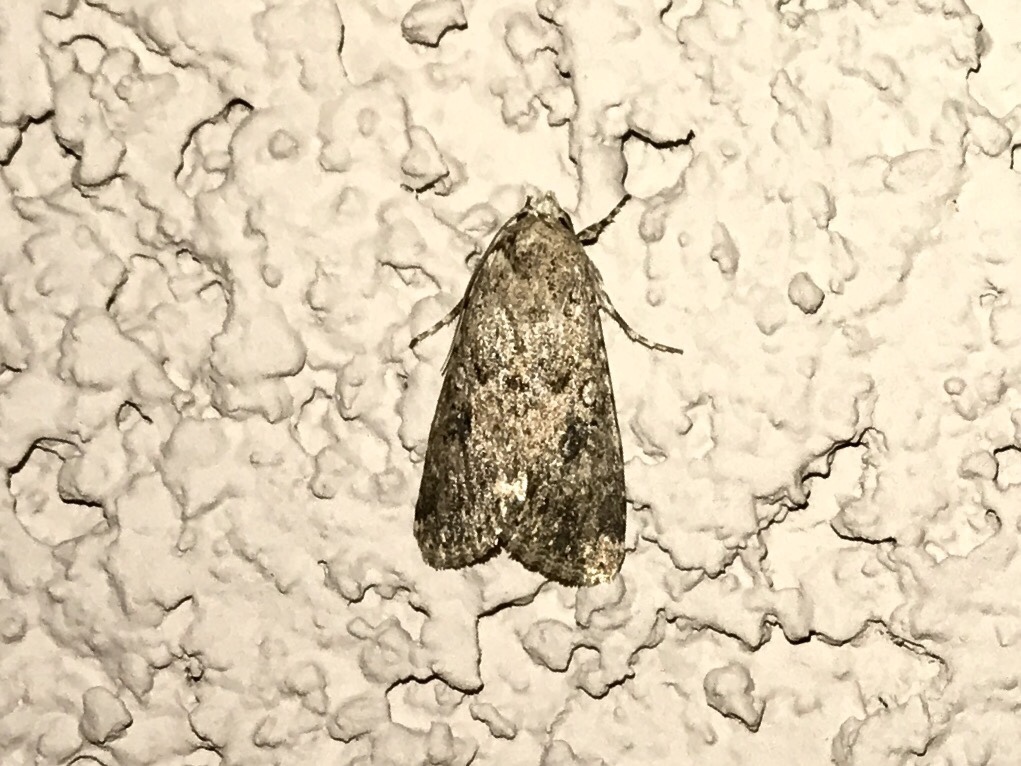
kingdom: Animalia
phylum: Arthropoda
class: Insecta
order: Lepidoptera
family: Noctuidae
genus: Spodoptera
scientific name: Spodoptera exigua
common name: Beet armyworm
